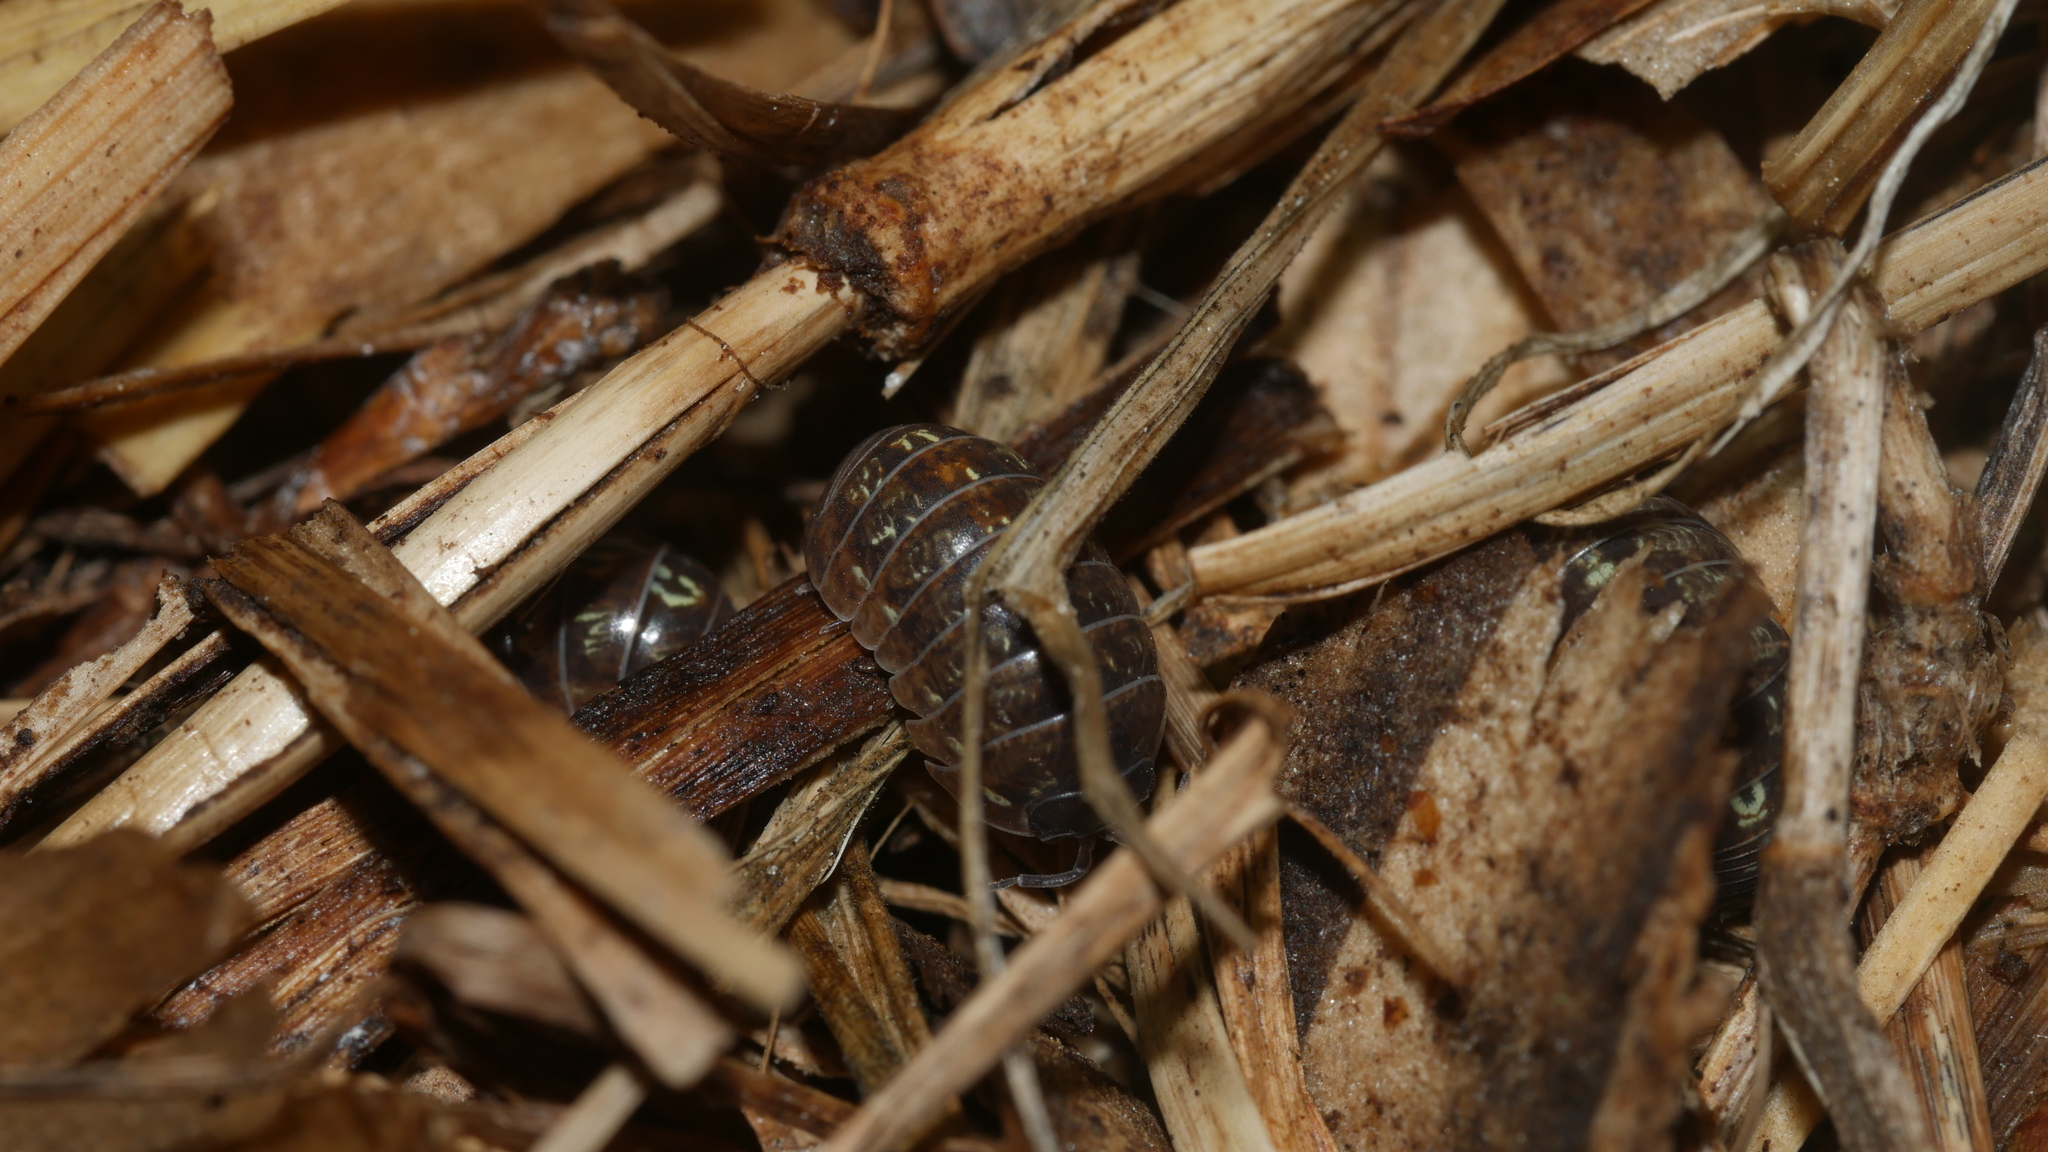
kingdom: Animalia
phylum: Arthropoda
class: Malacostraca
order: Isopoda
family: Armadillidiidae
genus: Armadillidium
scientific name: Armadillidium vulgare
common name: Common pill woodlouse
